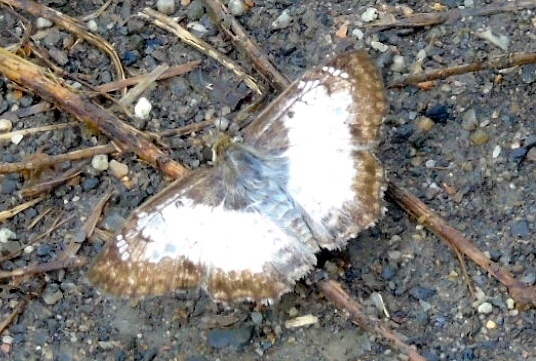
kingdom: Animalia
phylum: Arthropoda
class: Insecta
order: Lepidoptera
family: Hesperiidae
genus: Antigonus
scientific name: Antigonus emorsa
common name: White spurwing
